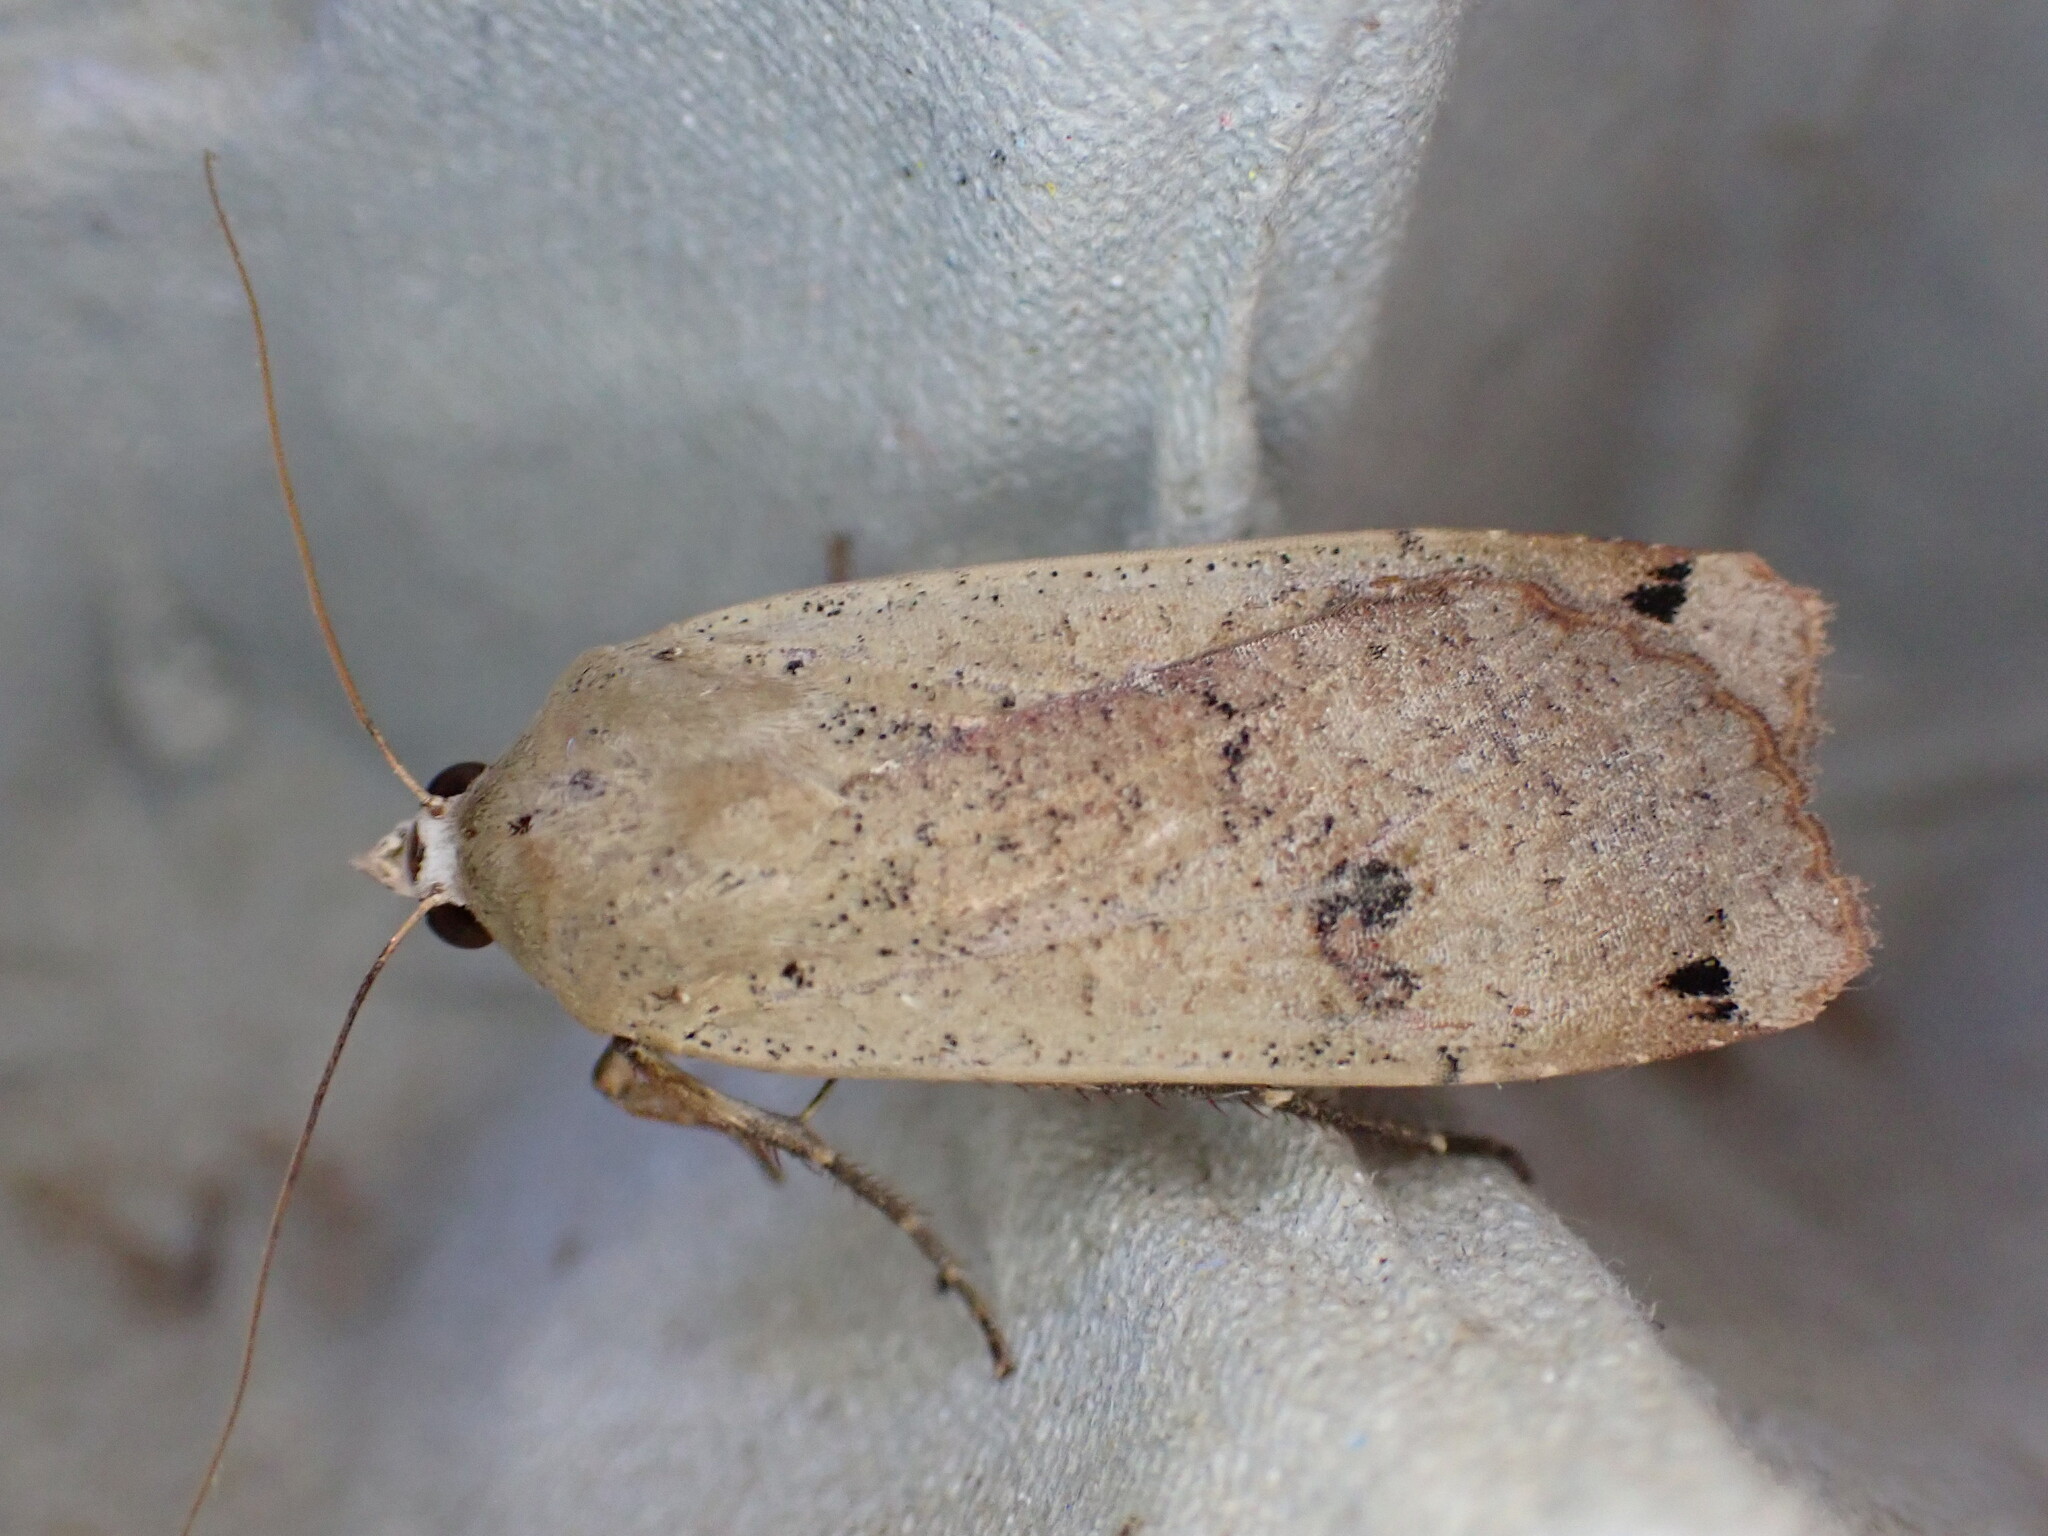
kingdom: Animalia
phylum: Arthropoda
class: Insecta
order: Lepidoptera
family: Noctuidae
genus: Noctua
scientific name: Noctua pronuba
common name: Large yellow underwing
